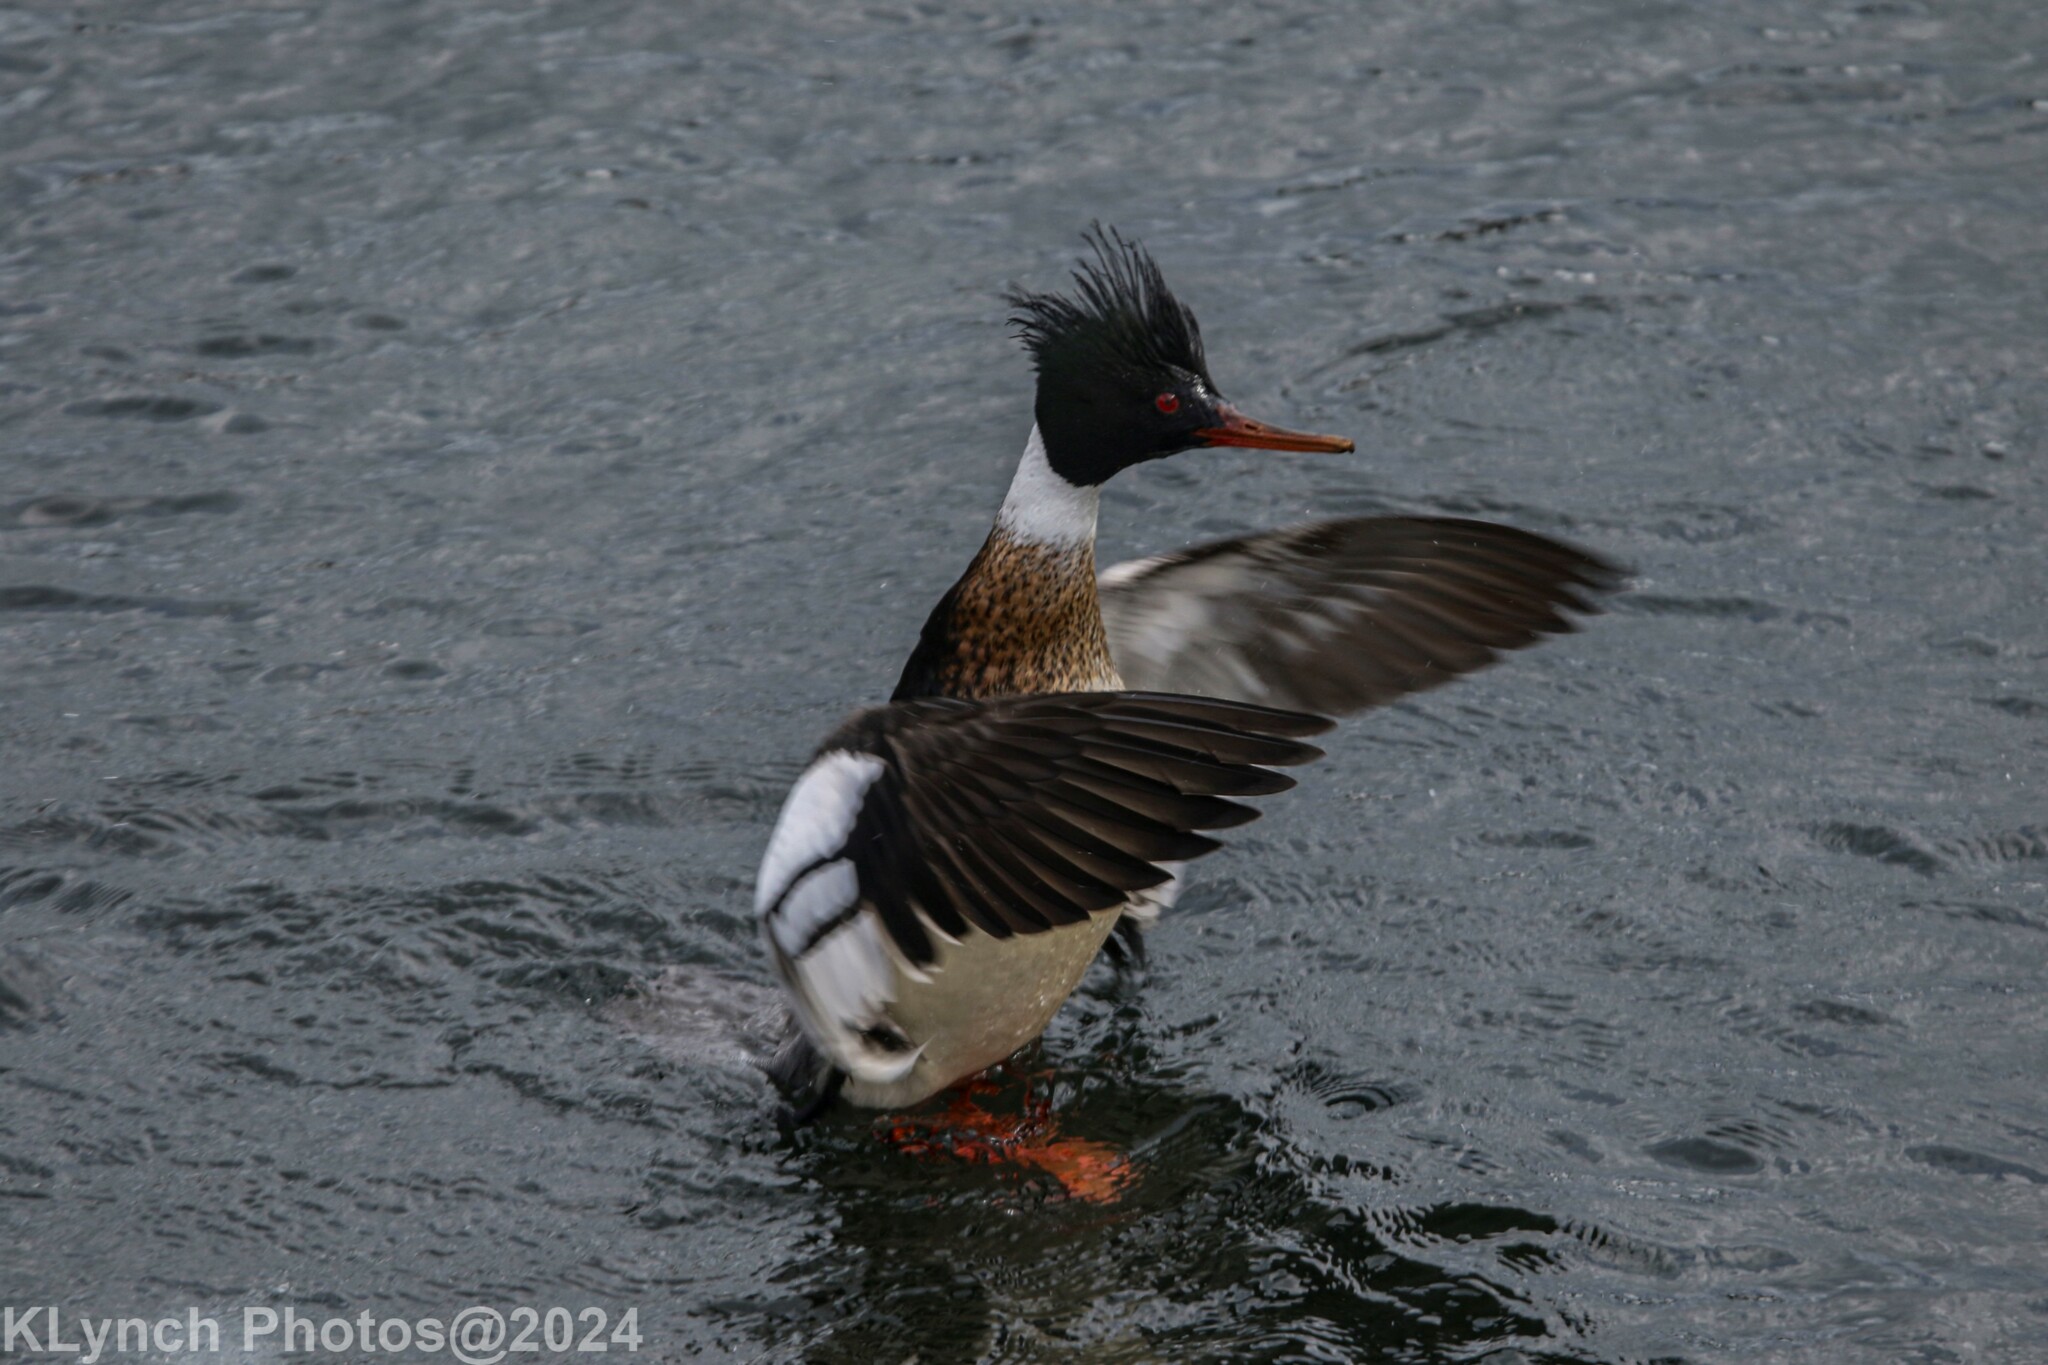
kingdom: Animalia
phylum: Chordata
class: Aves
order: Anseriformes
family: Anatidae
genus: Mergus
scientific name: Mergus serrator
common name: Red-breasted merganser
